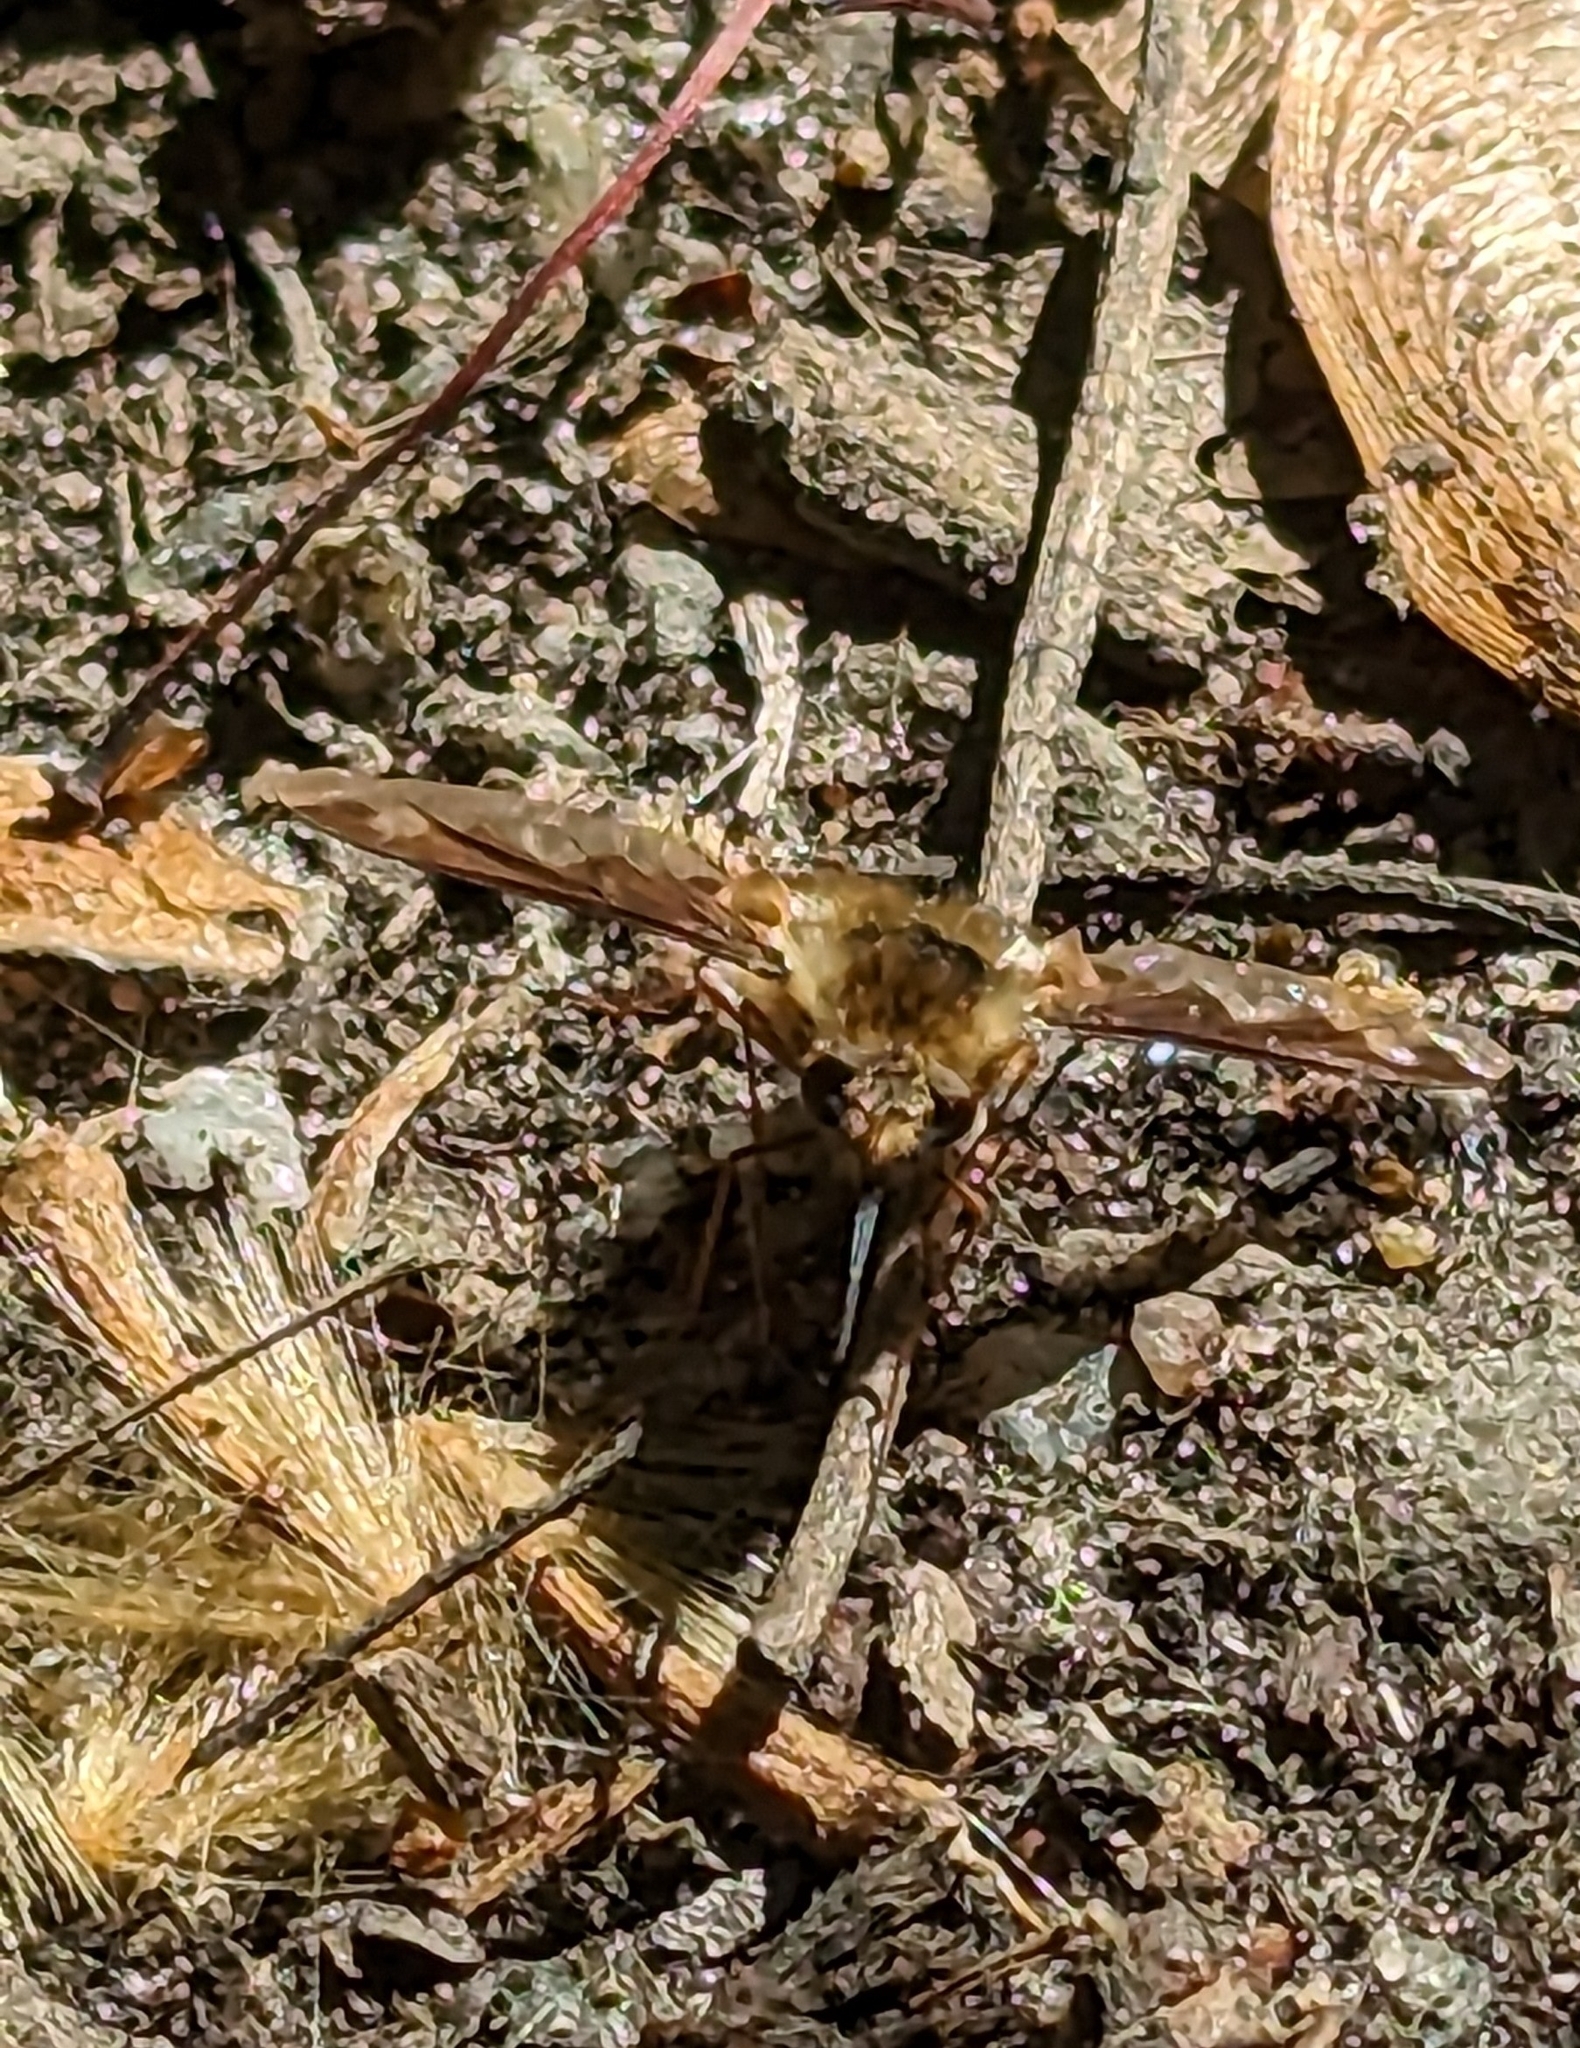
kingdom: Animalia
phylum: Arthropoda
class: Insecta
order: Diptera
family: Bombyliidae
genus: Bombylius
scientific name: Bombylius major
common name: Bee fly
